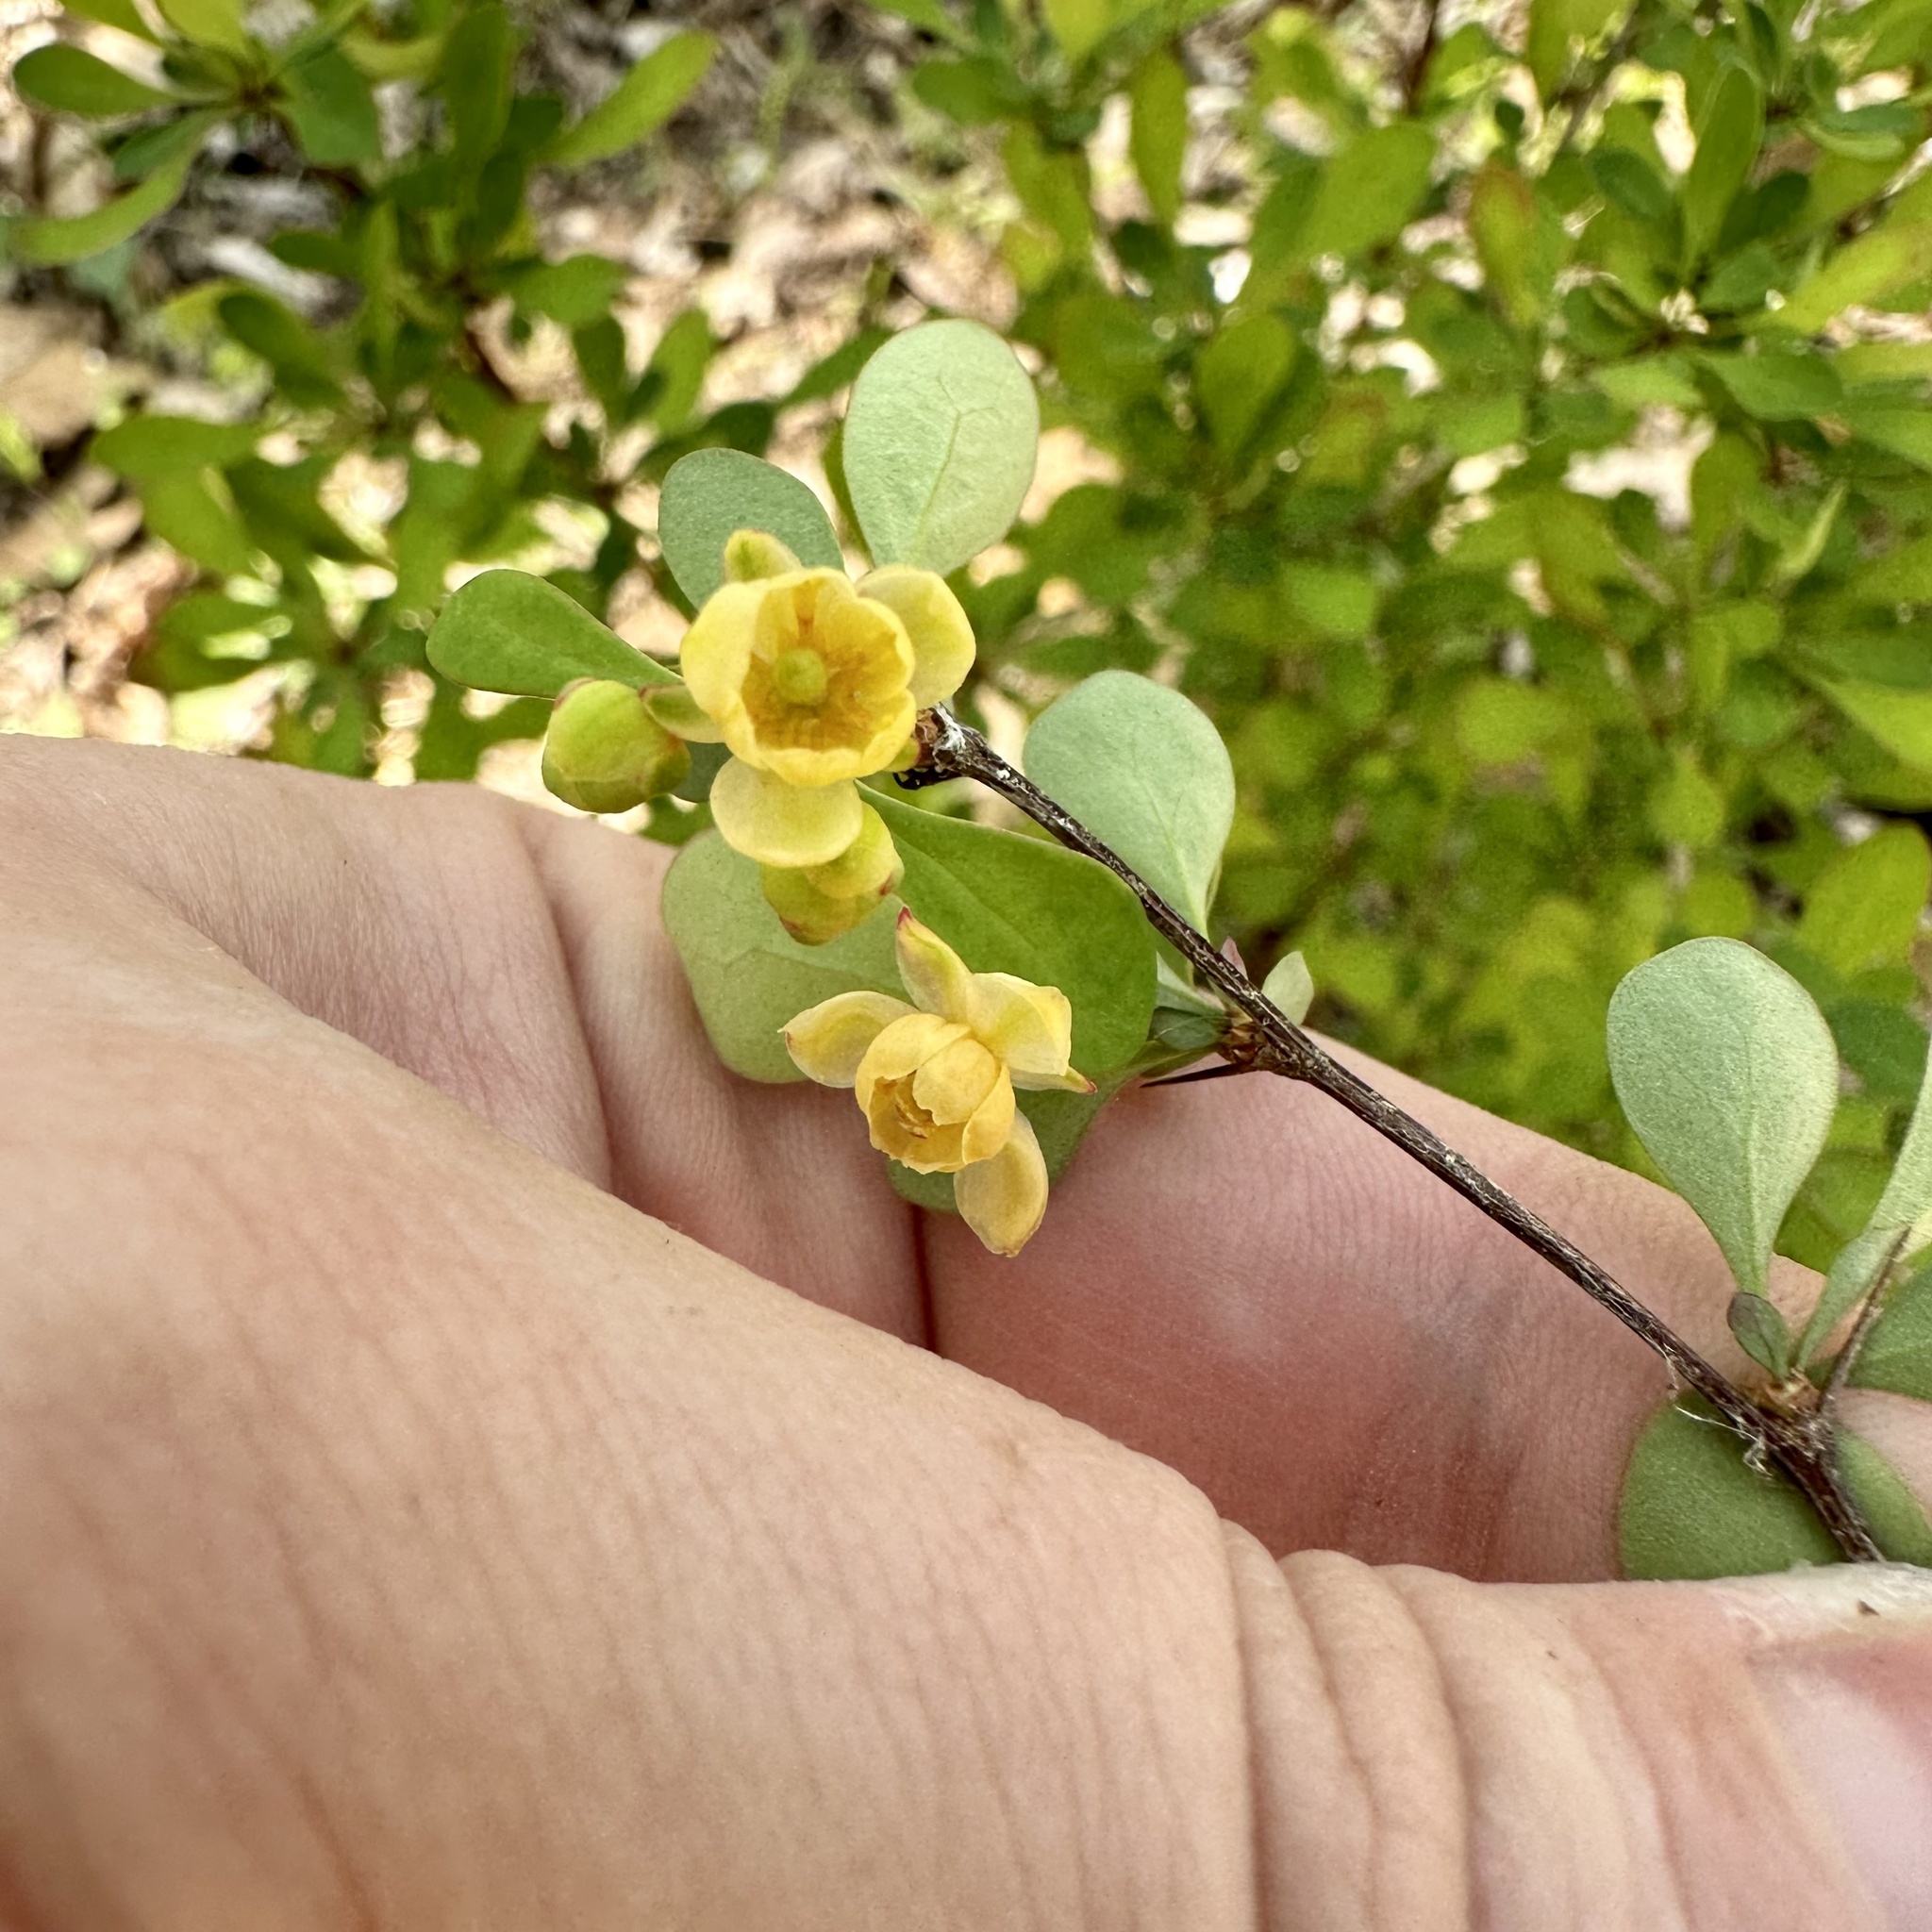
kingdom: Plantae
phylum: Tracheophyta
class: Magnoliopsida
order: Ranunculales
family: Berberidaceae
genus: Berberis
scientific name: Berberis thunbergii
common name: Japanese barberry
